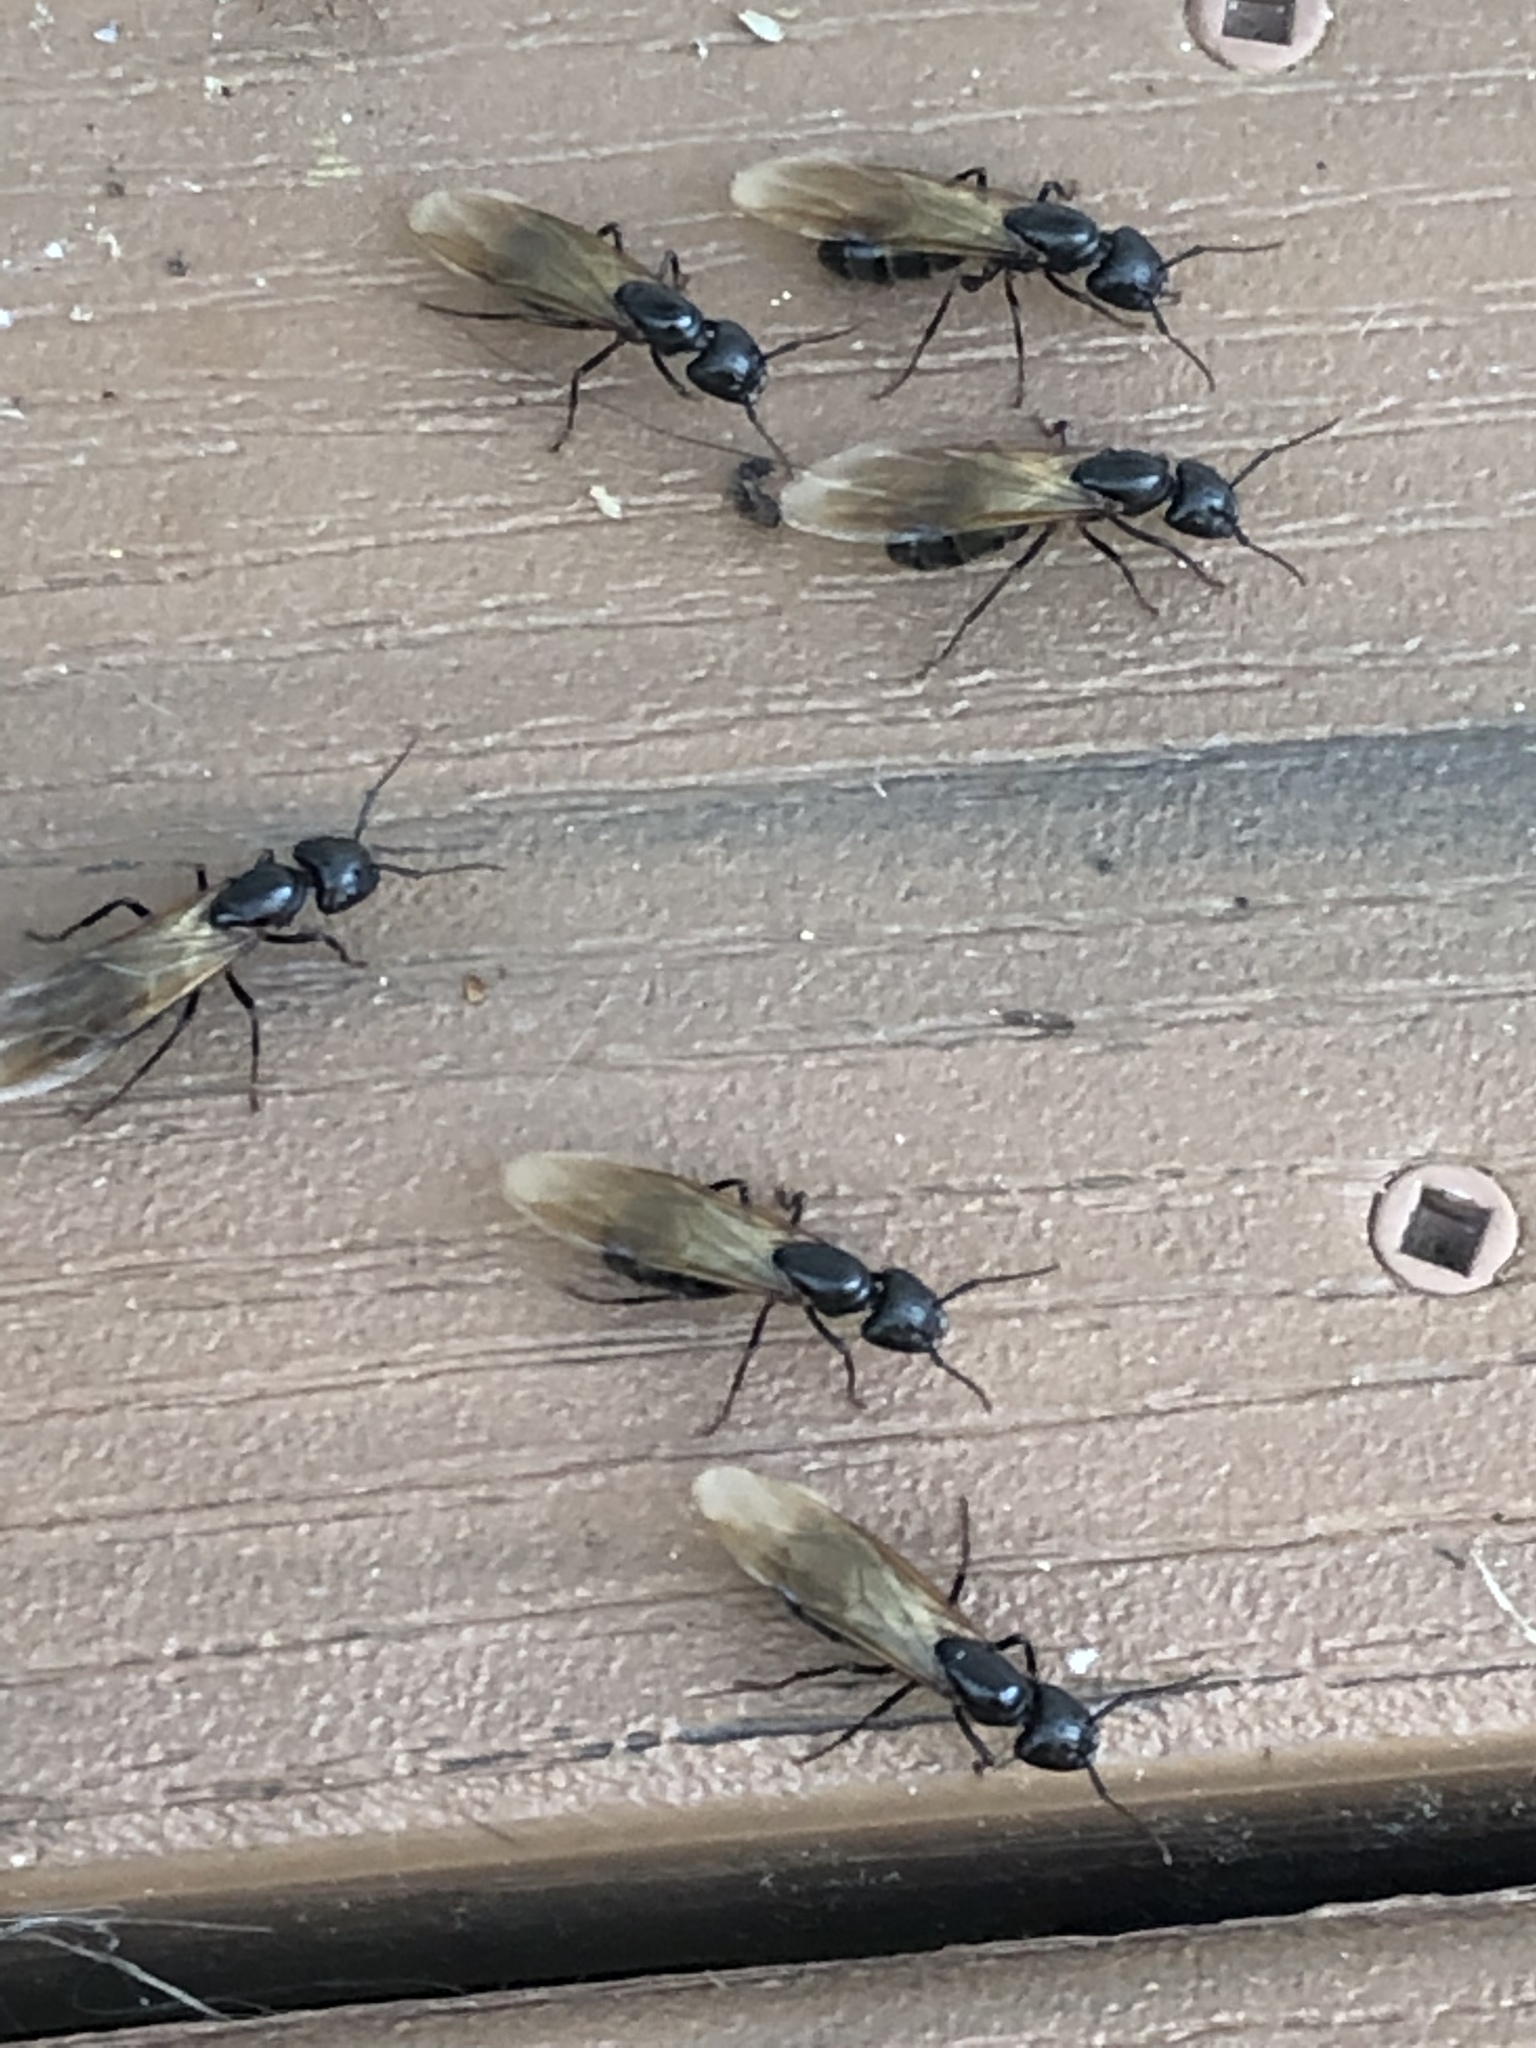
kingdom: Animalia
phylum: Arthropoda
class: Insecta
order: Hymenoptera
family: Formicidae
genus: Camponotus
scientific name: Camponotus pennsylvanicus
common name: Black carpenter ant
